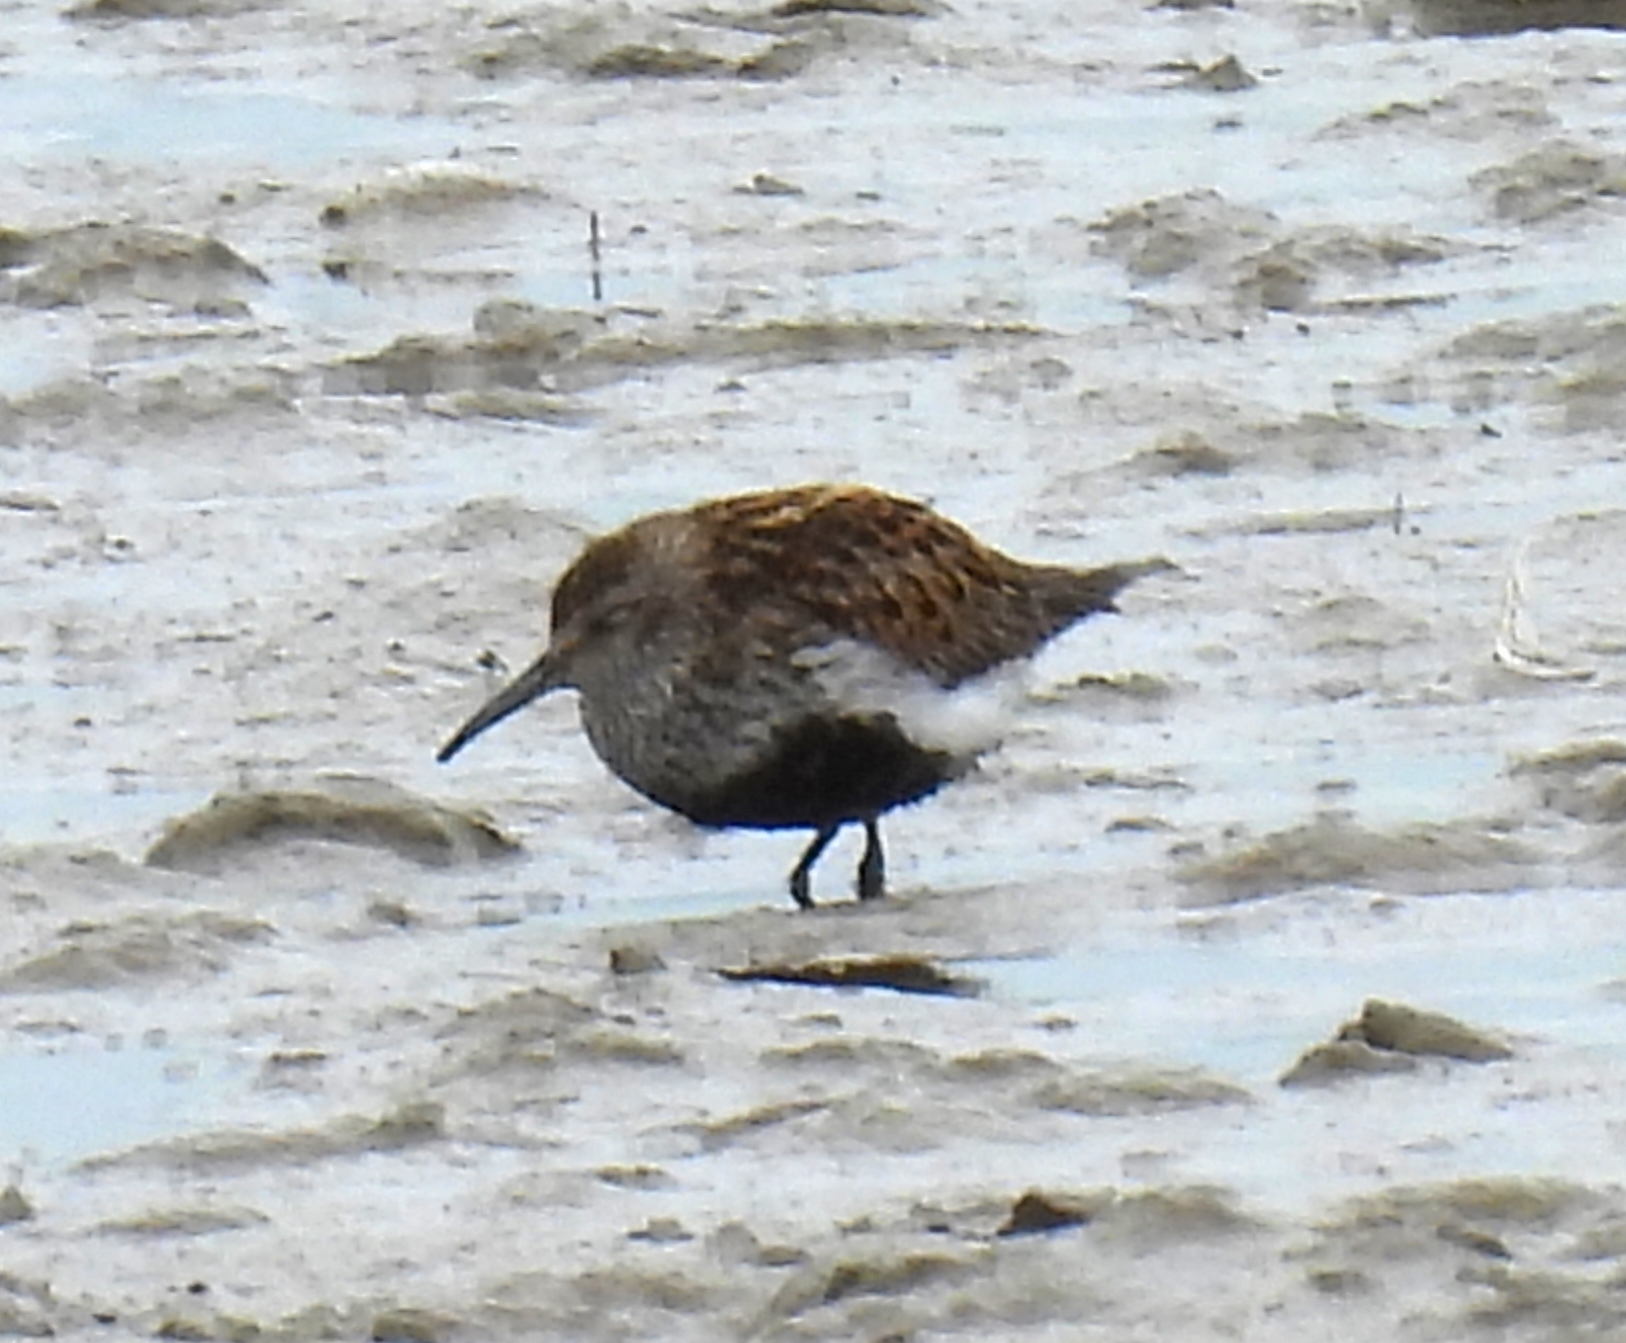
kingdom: Animalia
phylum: Chordata
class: Aves
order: Charadriiformes
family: Scolopacidae
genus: Calidris
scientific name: Calidris alpina
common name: Dunlin
